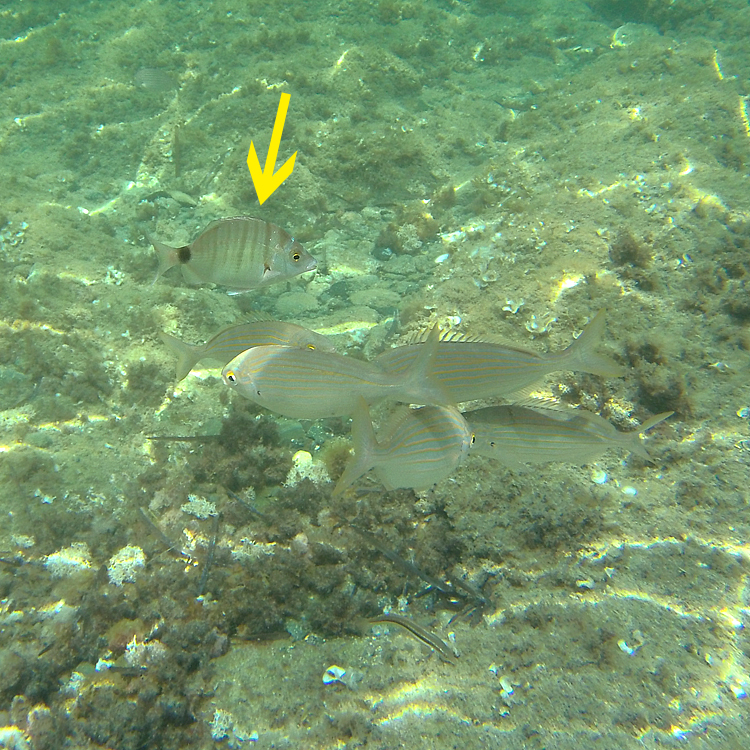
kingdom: Animalia
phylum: Chordata
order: Perciformes
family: Sparidae
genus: Diplodus
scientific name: Diplodus puntazzo
